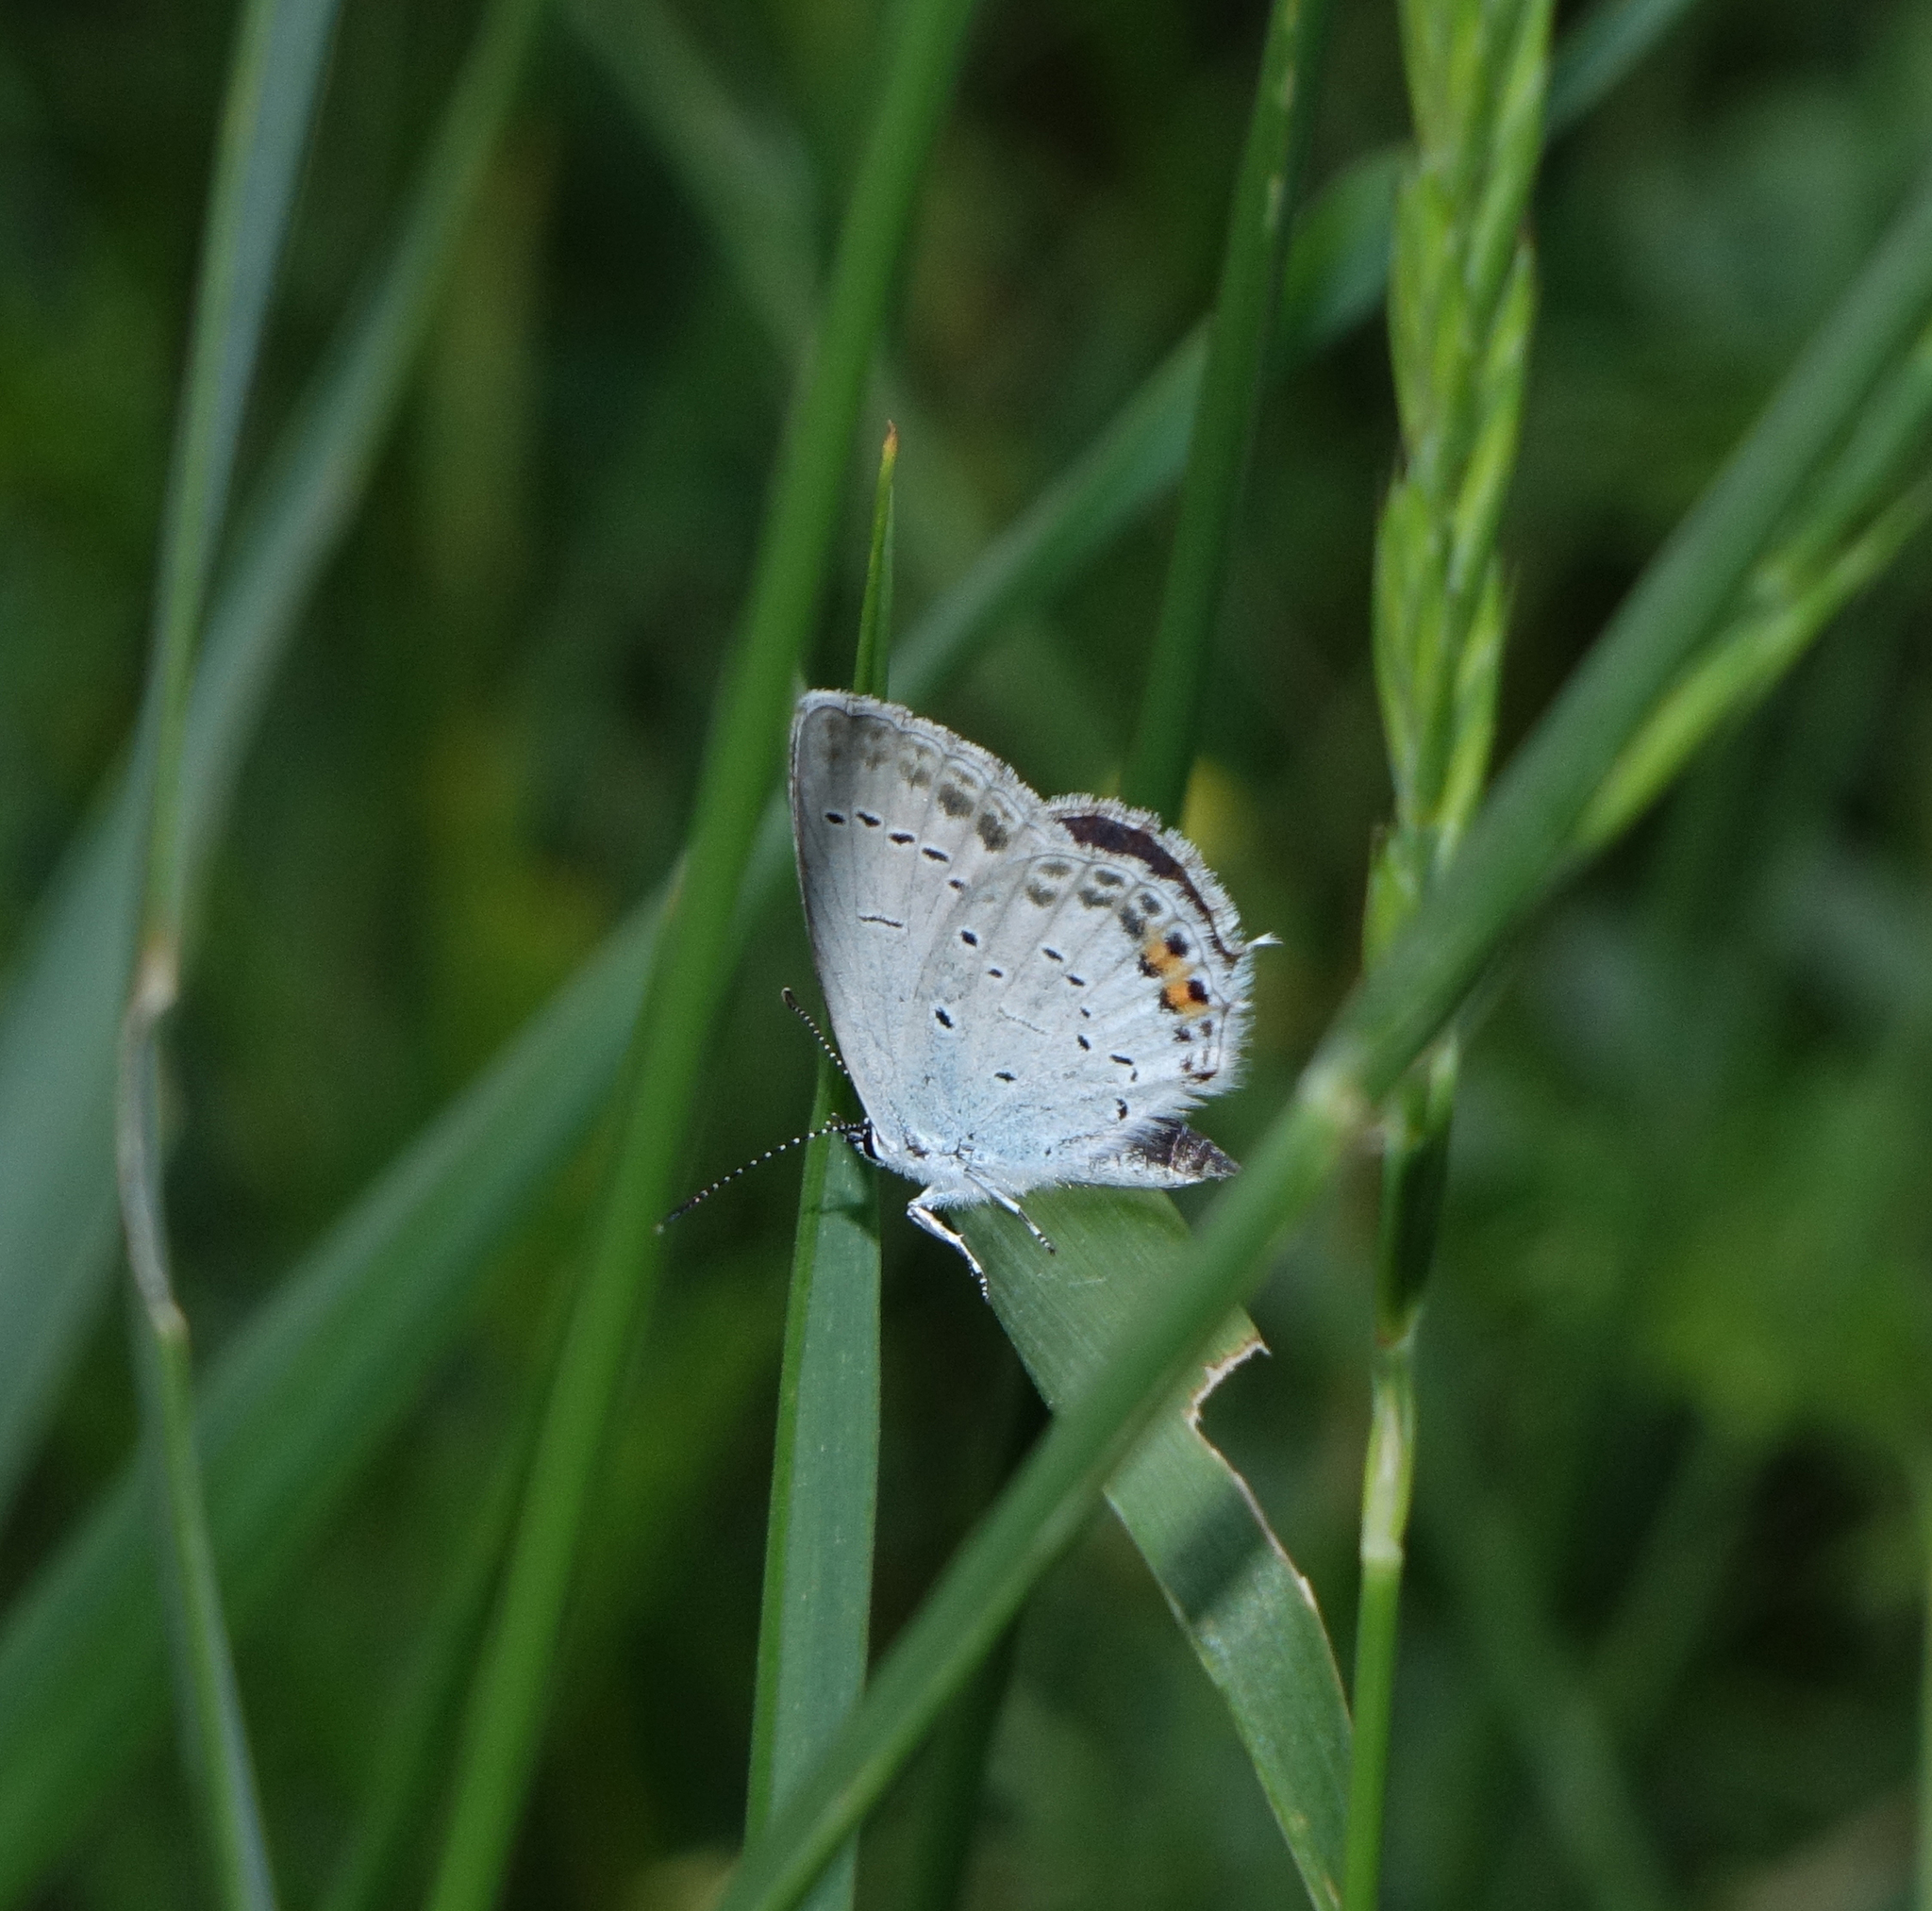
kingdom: Animalia
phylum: Arthropoda
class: Insecta
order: Lepidoptera
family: Lycaenidae
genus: Elkalyce
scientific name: Elkalyce argiades
